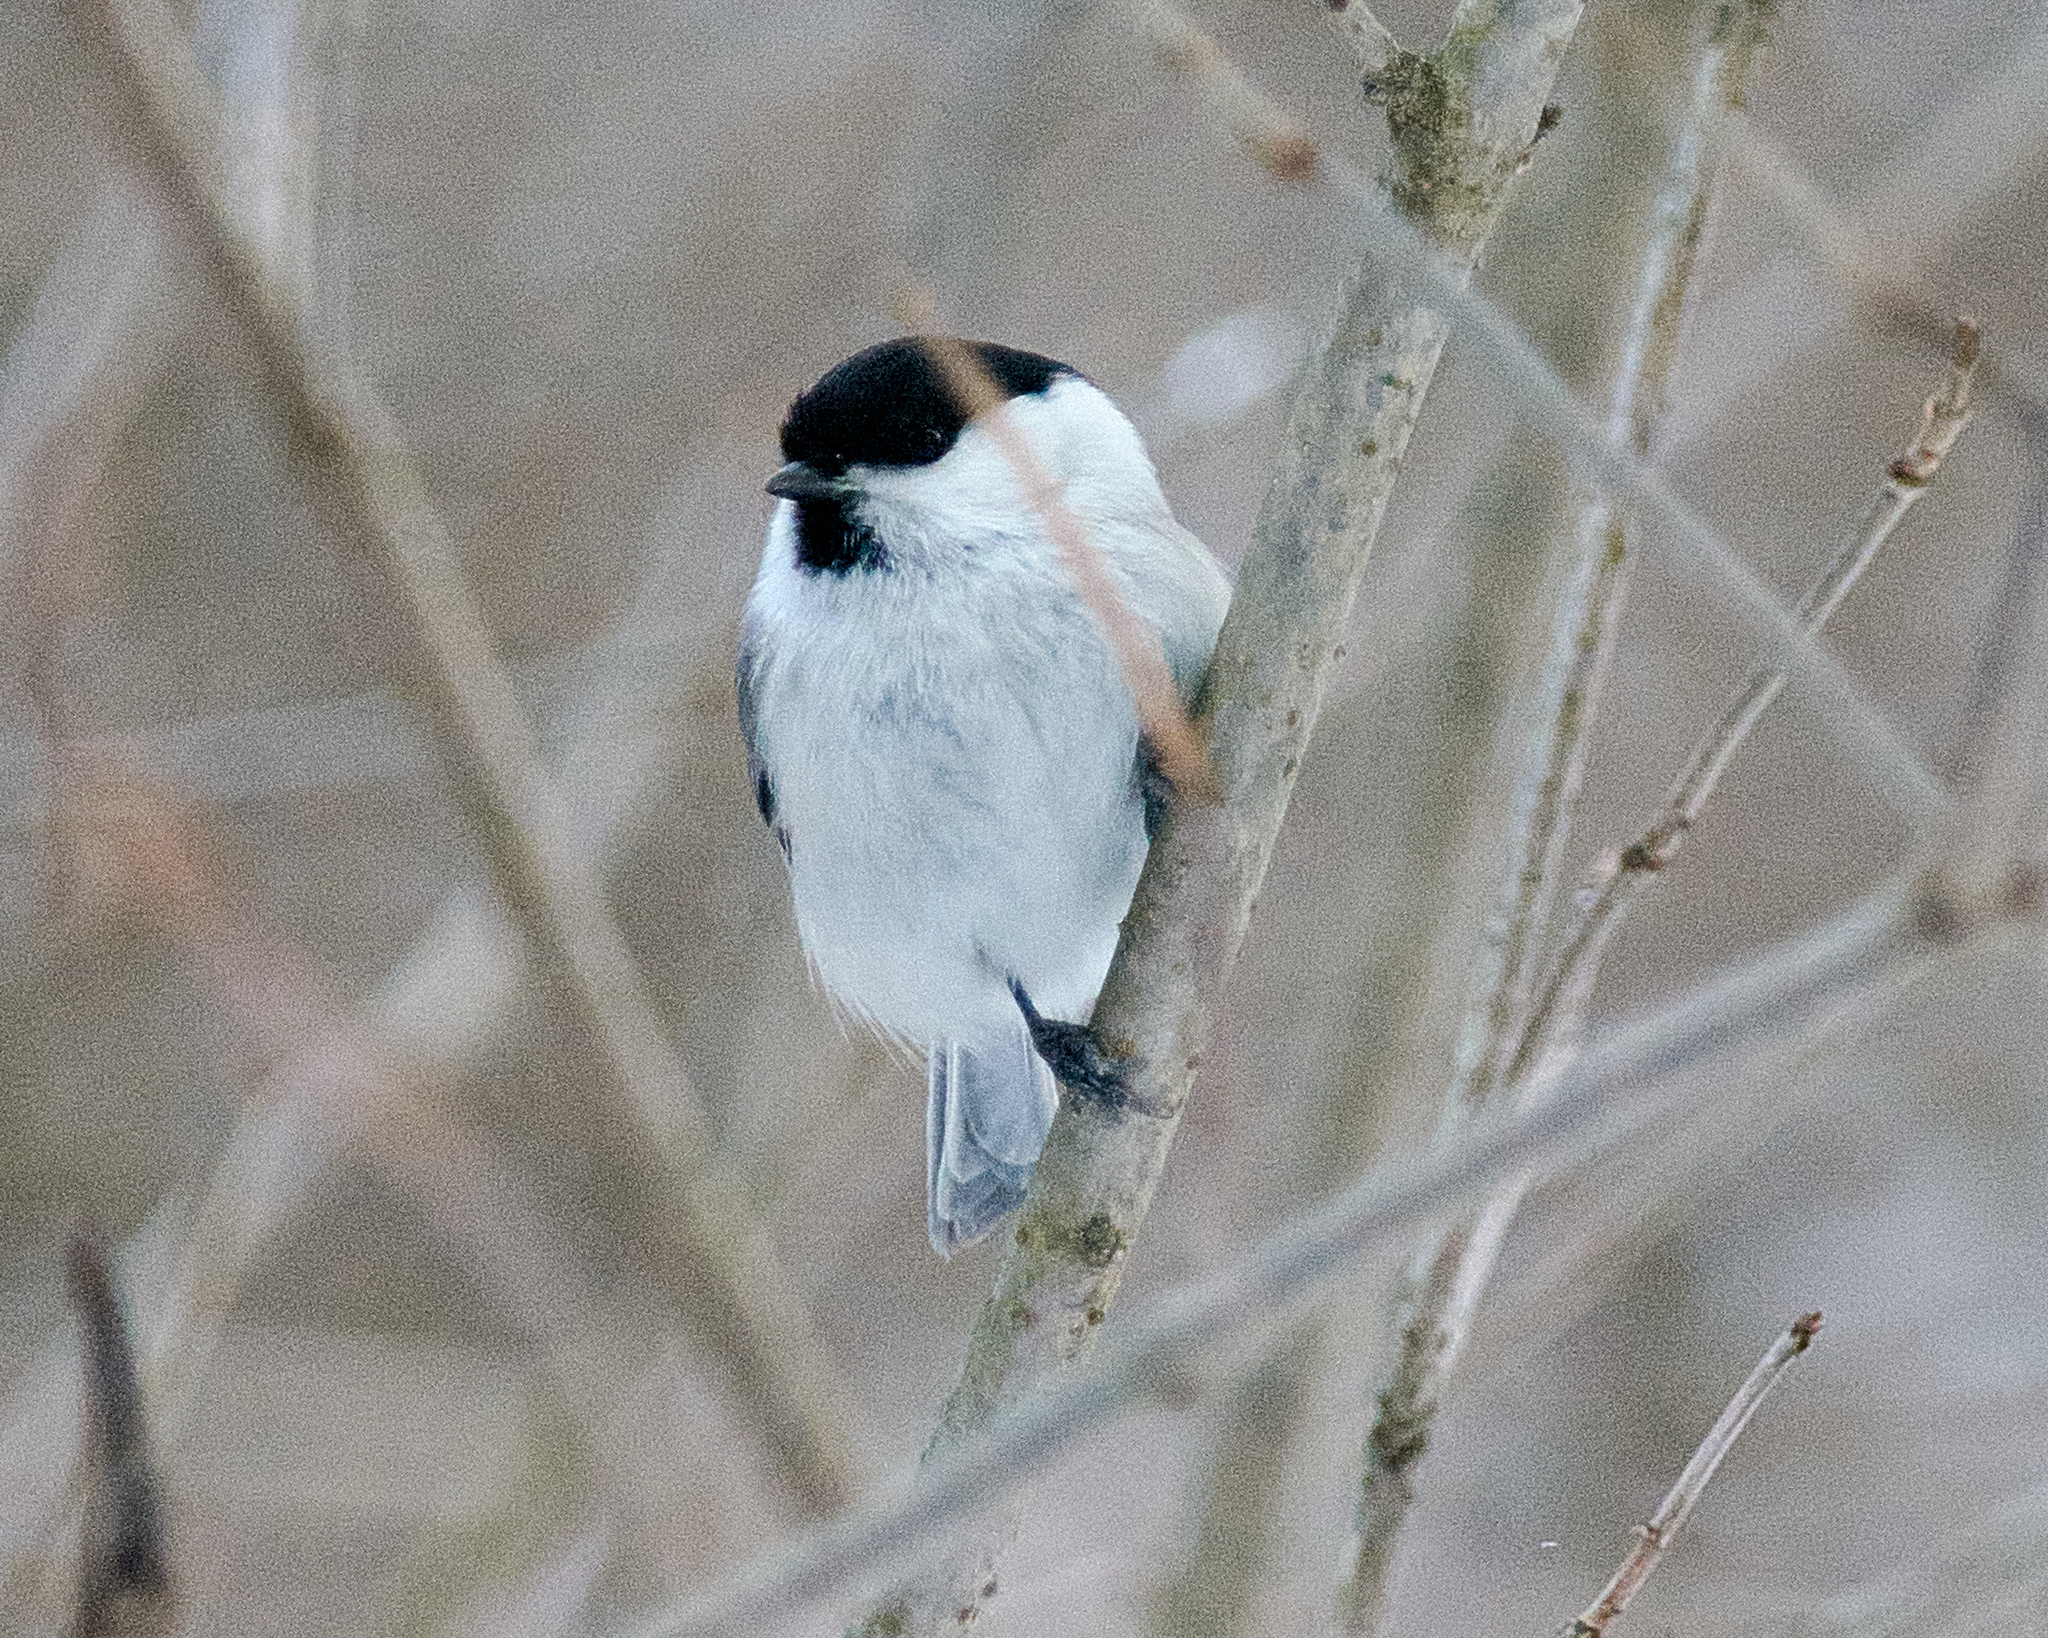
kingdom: Animalia
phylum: Chordata
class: Aves
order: Passeriformes
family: Paridae
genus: Poecile
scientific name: Poecile montanus
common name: Willow tit
